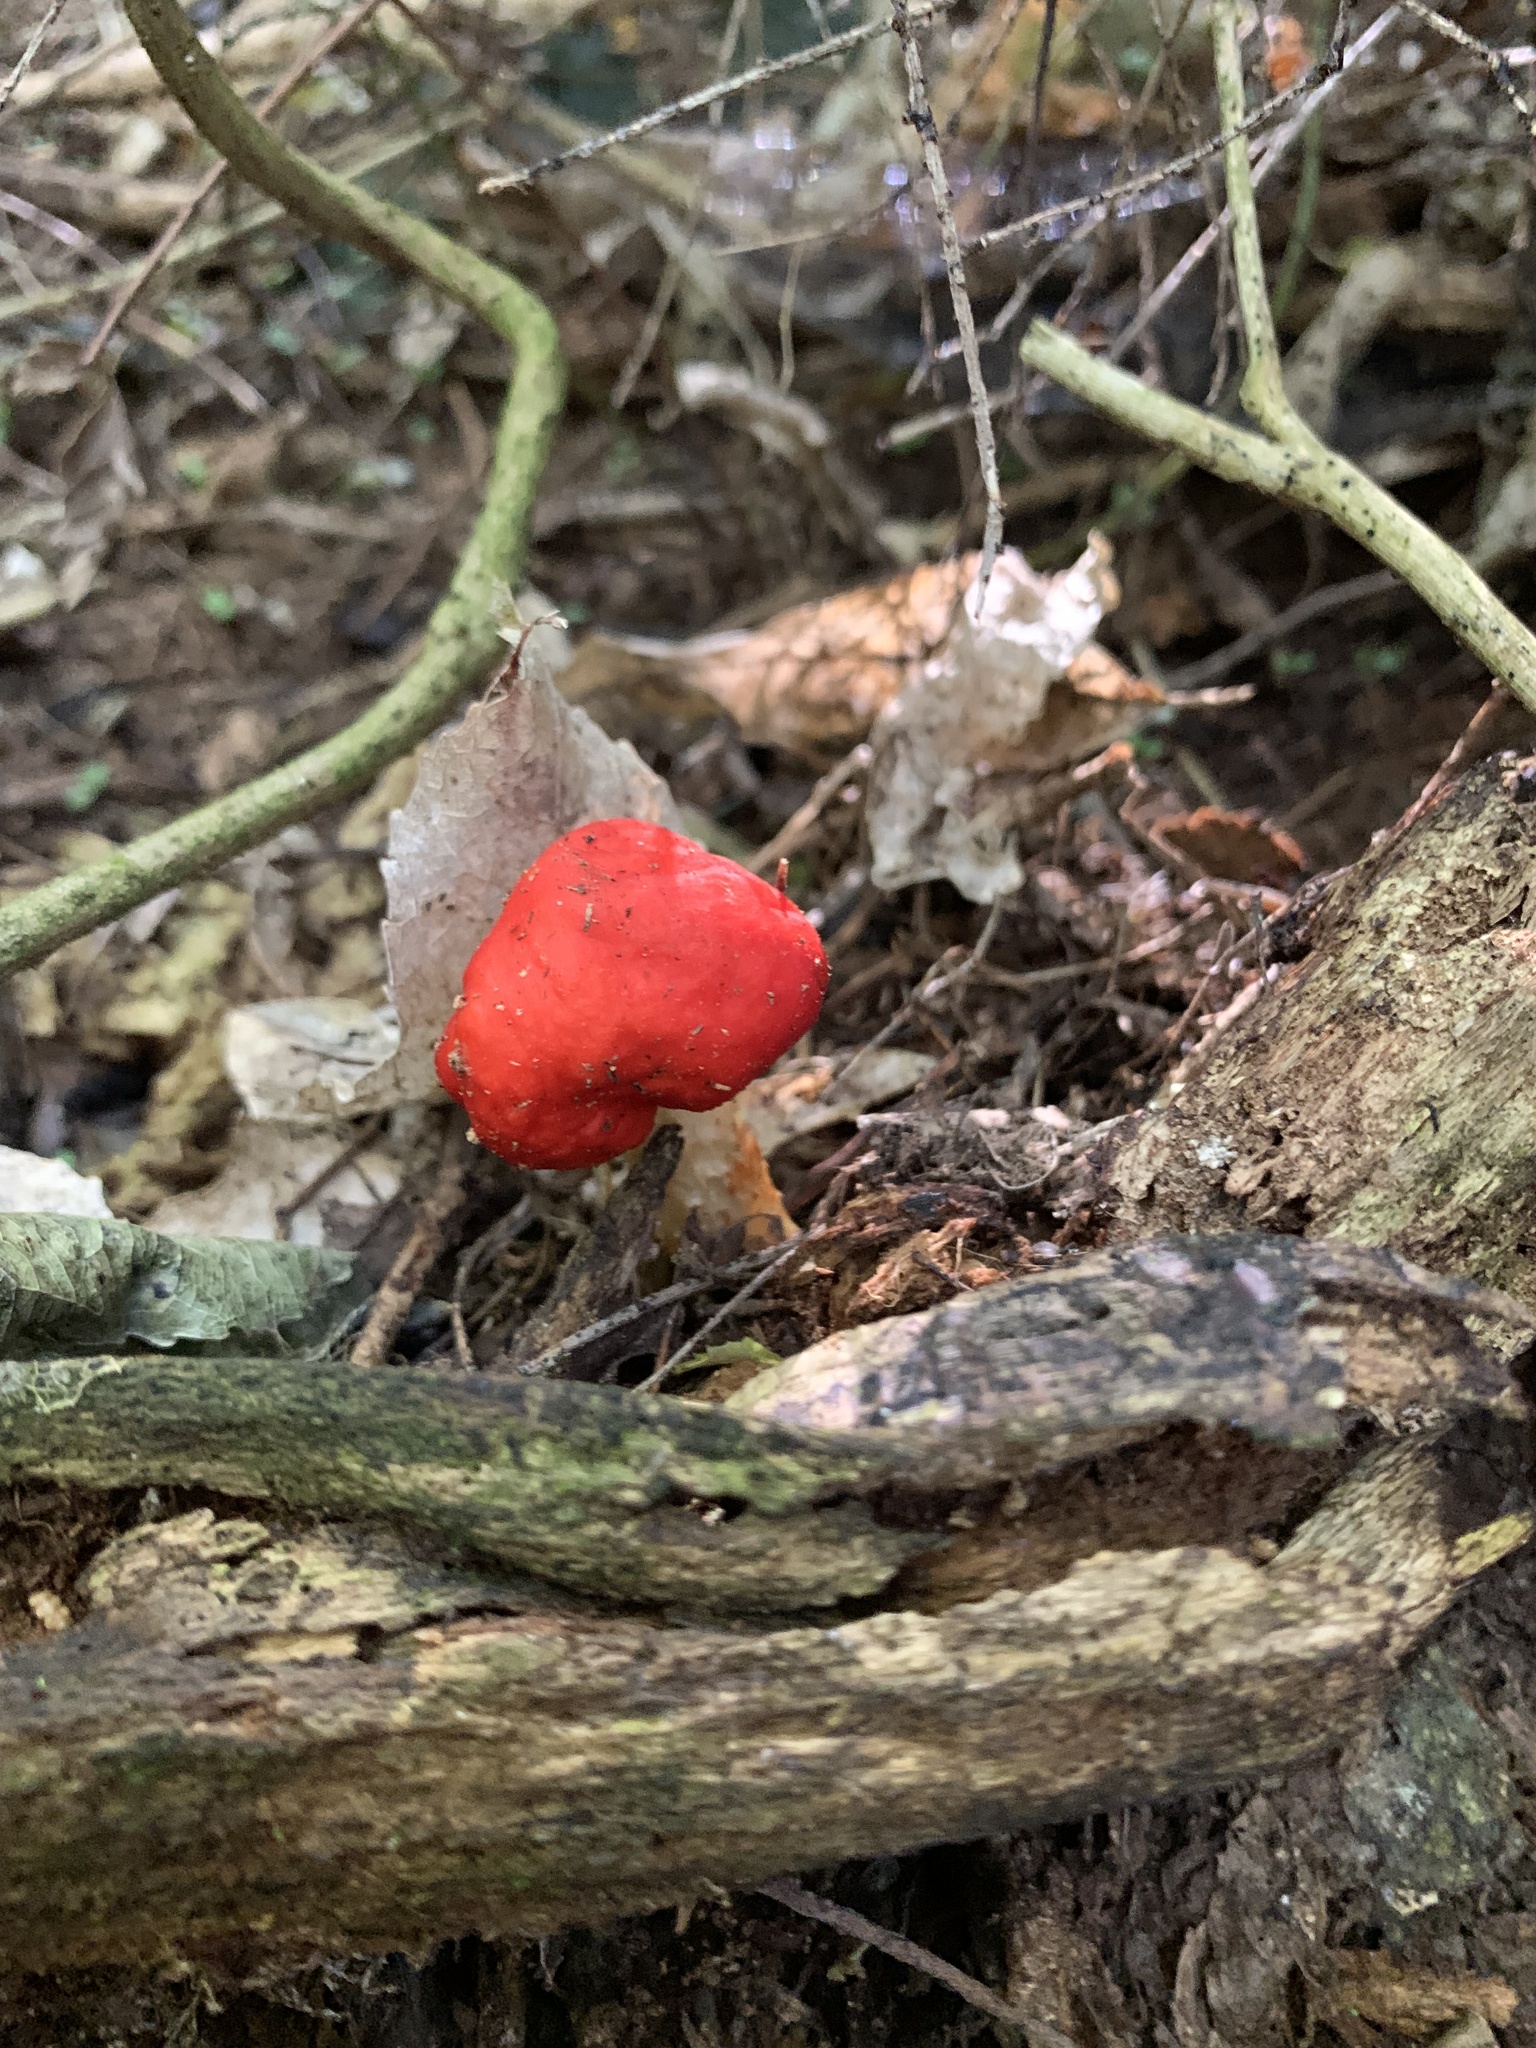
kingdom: Fungi
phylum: Basidiomycota
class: Agaricomycetes
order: Agaricales
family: Strophariaceae
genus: Leratiomyces
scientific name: Leratiomyces erythrocephalus
